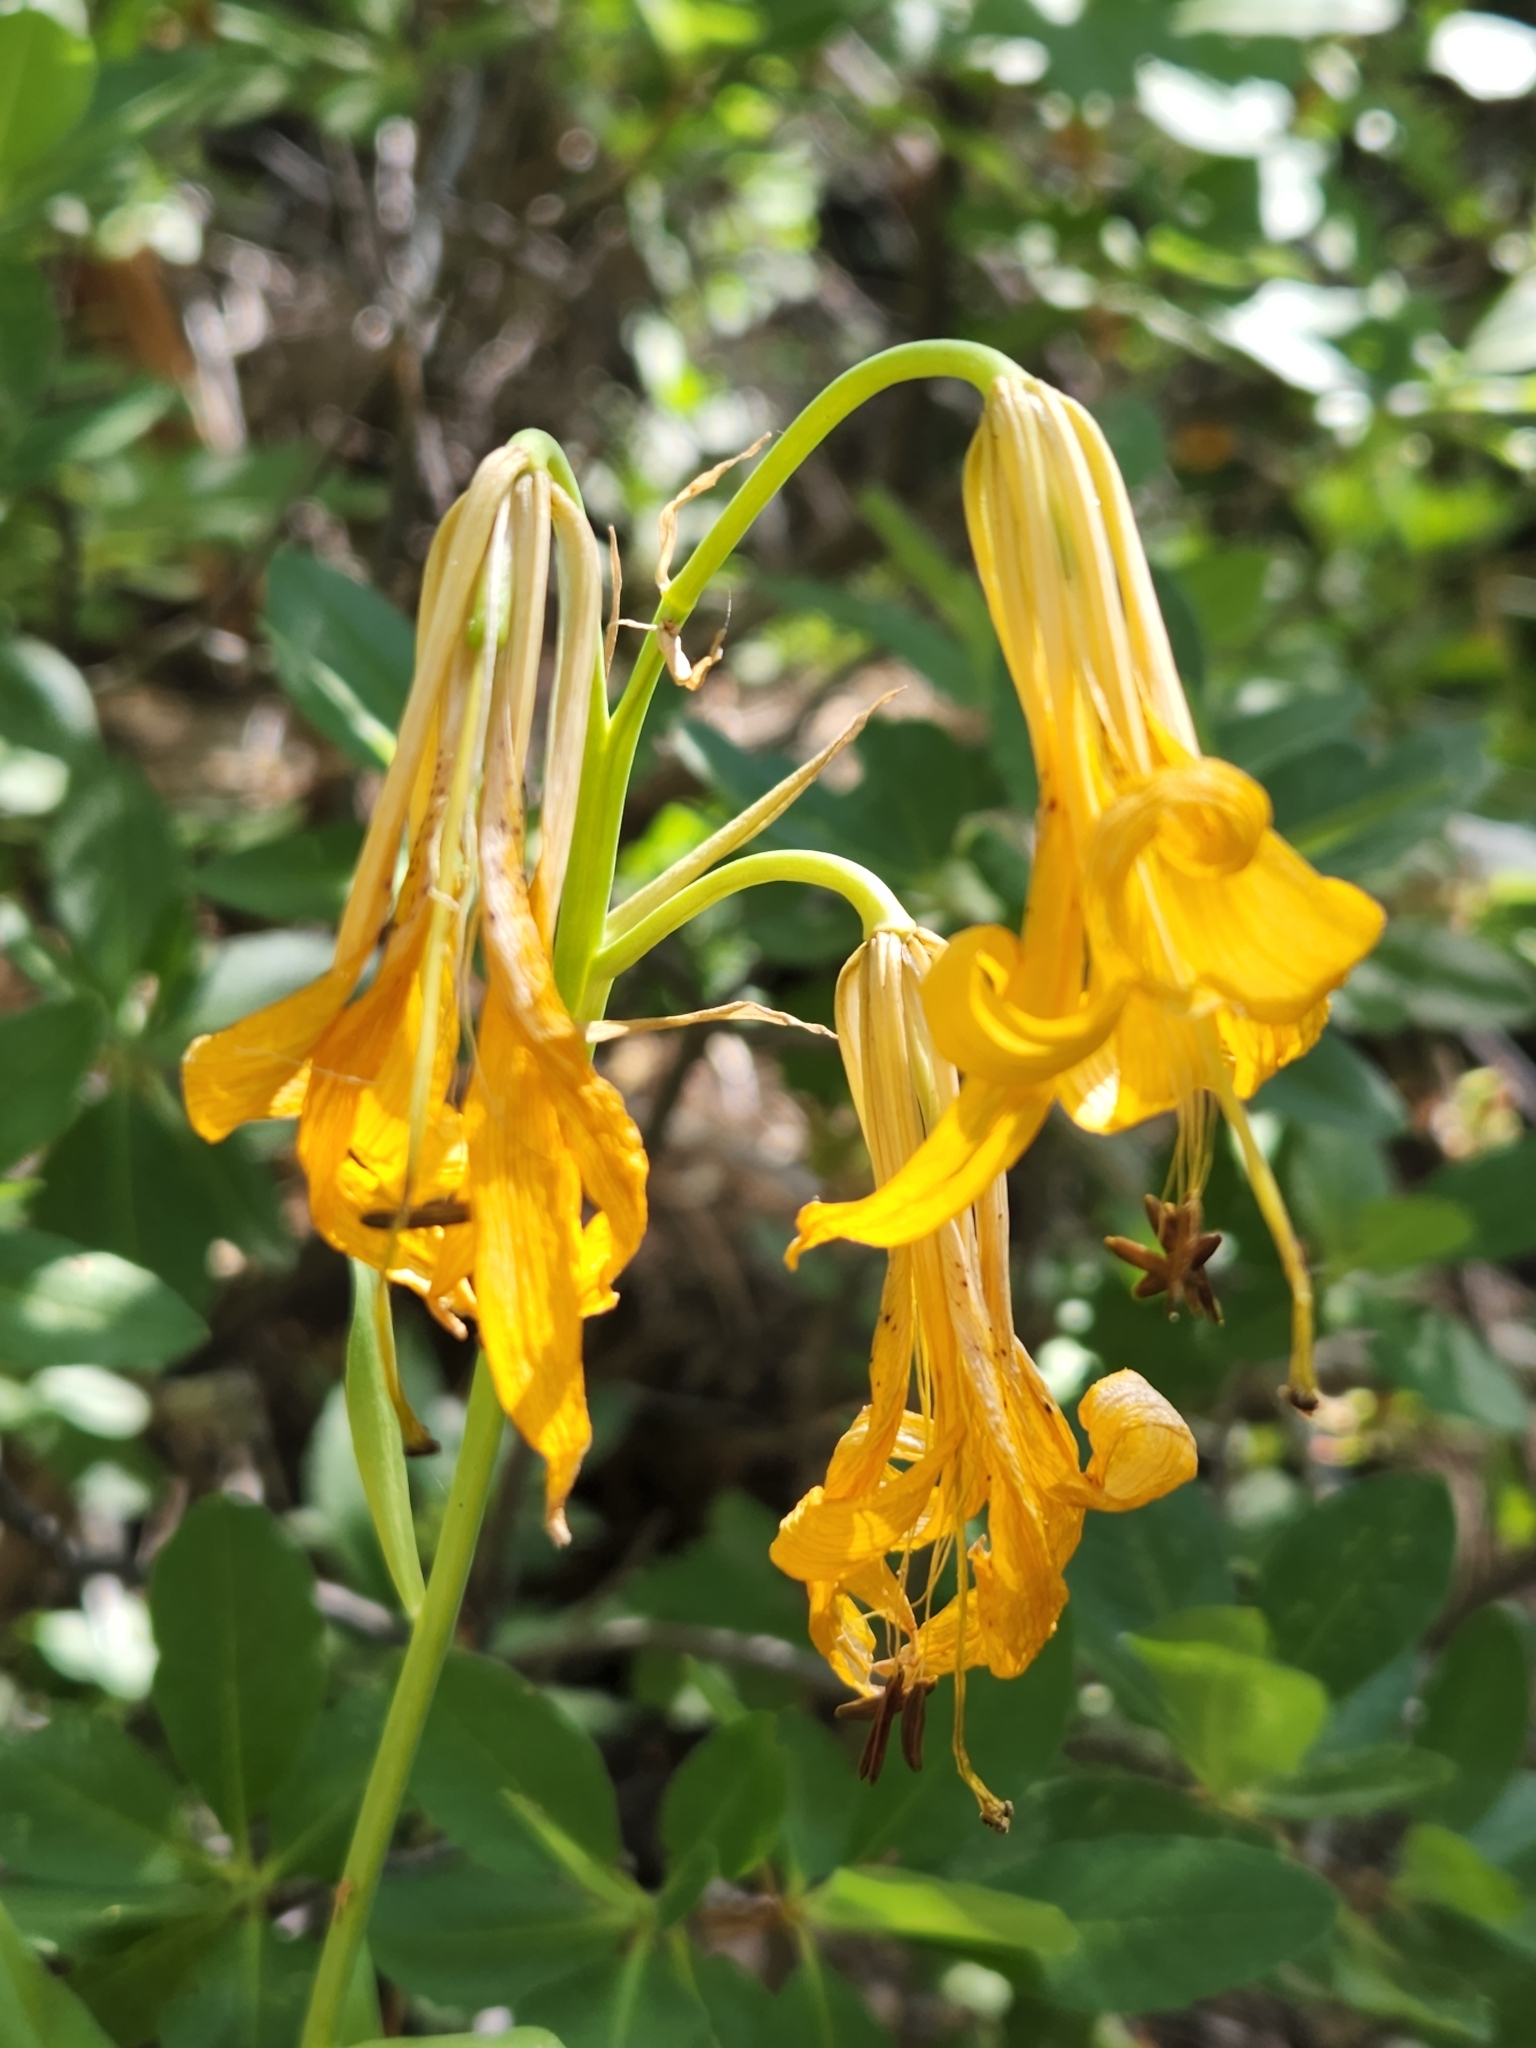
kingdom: Plantae
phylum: Tracheophyta
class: Liliopsida
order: Liliales
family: Liliaceae
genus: Lilium
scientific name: Lilium parryi
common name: Lemon lily
